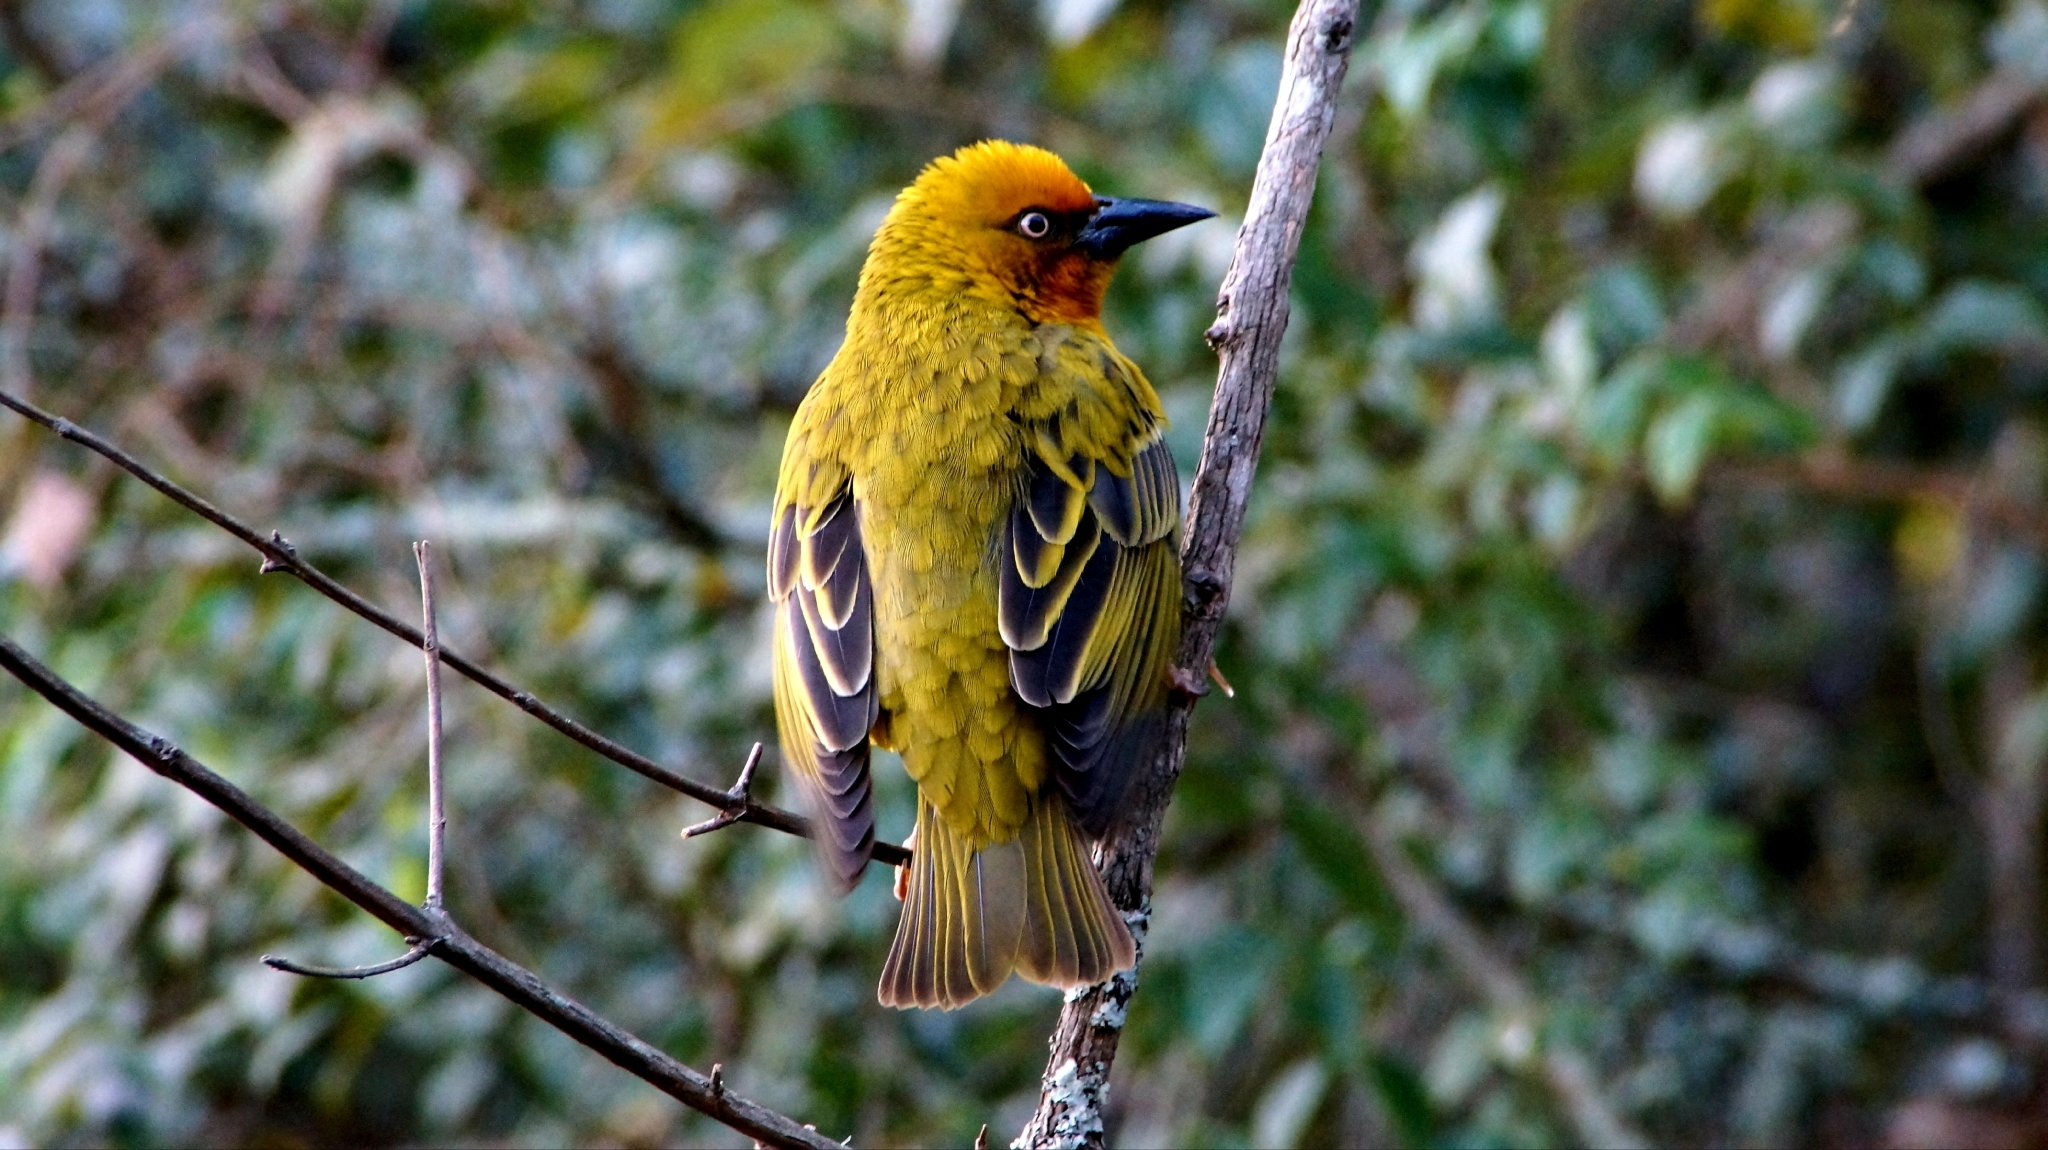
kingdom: Animalia
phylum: Chordata
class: Aves
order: Passeriformes
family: Ploceidae
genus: Ploceus
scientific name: Ploceus capensis
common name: Cape weaver
